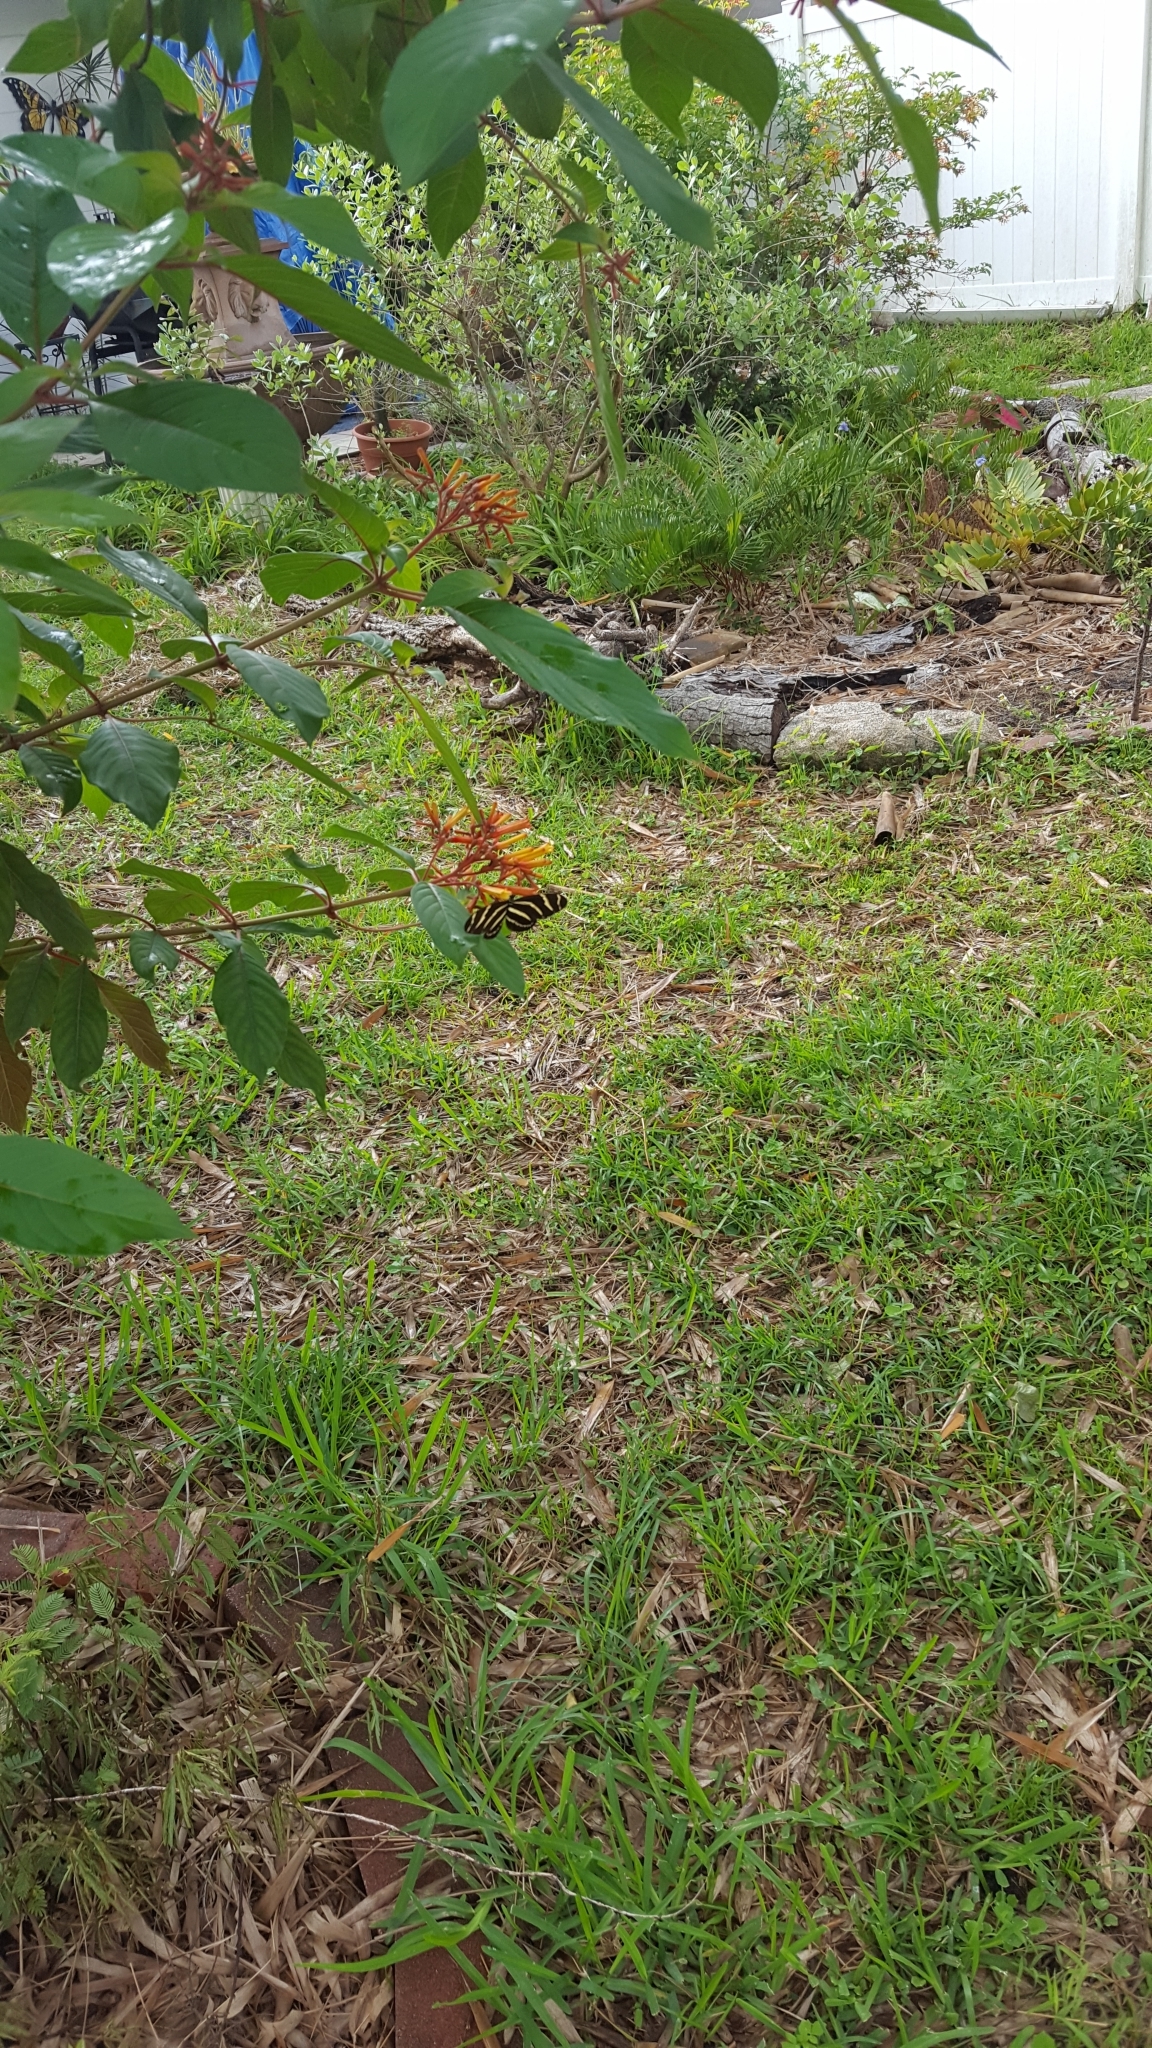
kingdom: Animalia
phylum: Arthropoda
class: Insecta
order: Lepidoptera
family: Nymphalidae
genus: Heliconius
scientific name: Heliconius charithonia
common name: Zebra long wing
